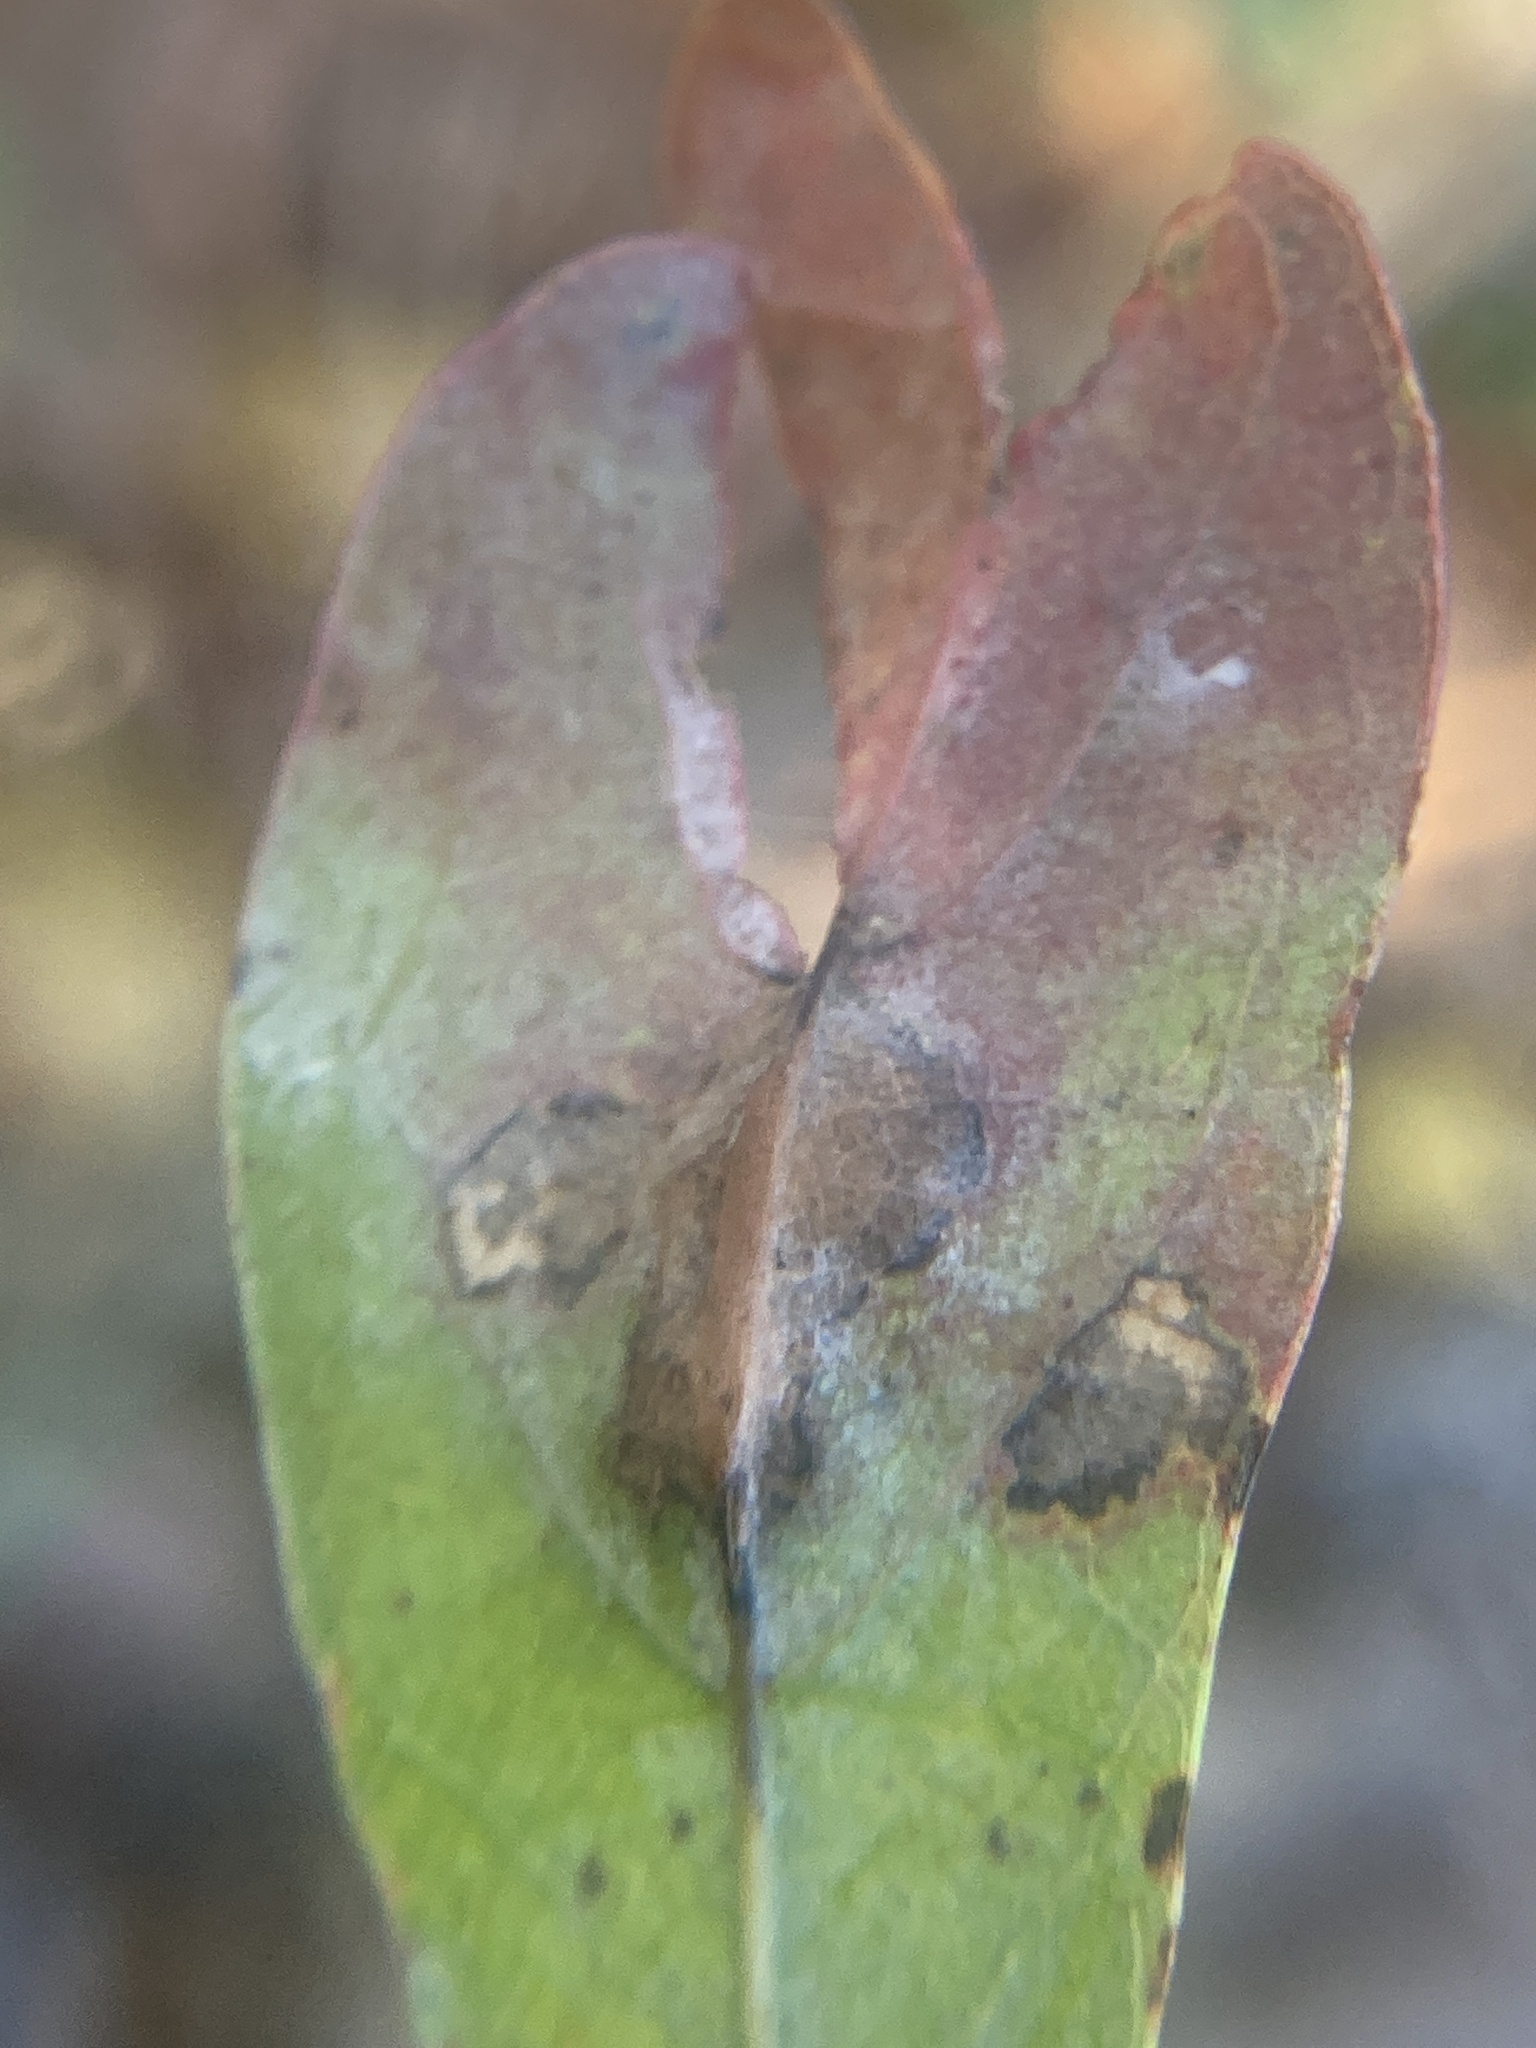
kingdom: Animalia
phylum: Arthropoda
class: Insecta
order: Diptera
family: Cecidomyiidae
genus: Polystepha
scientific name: Polystepha pilulae
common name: Oak leaf gall midge
